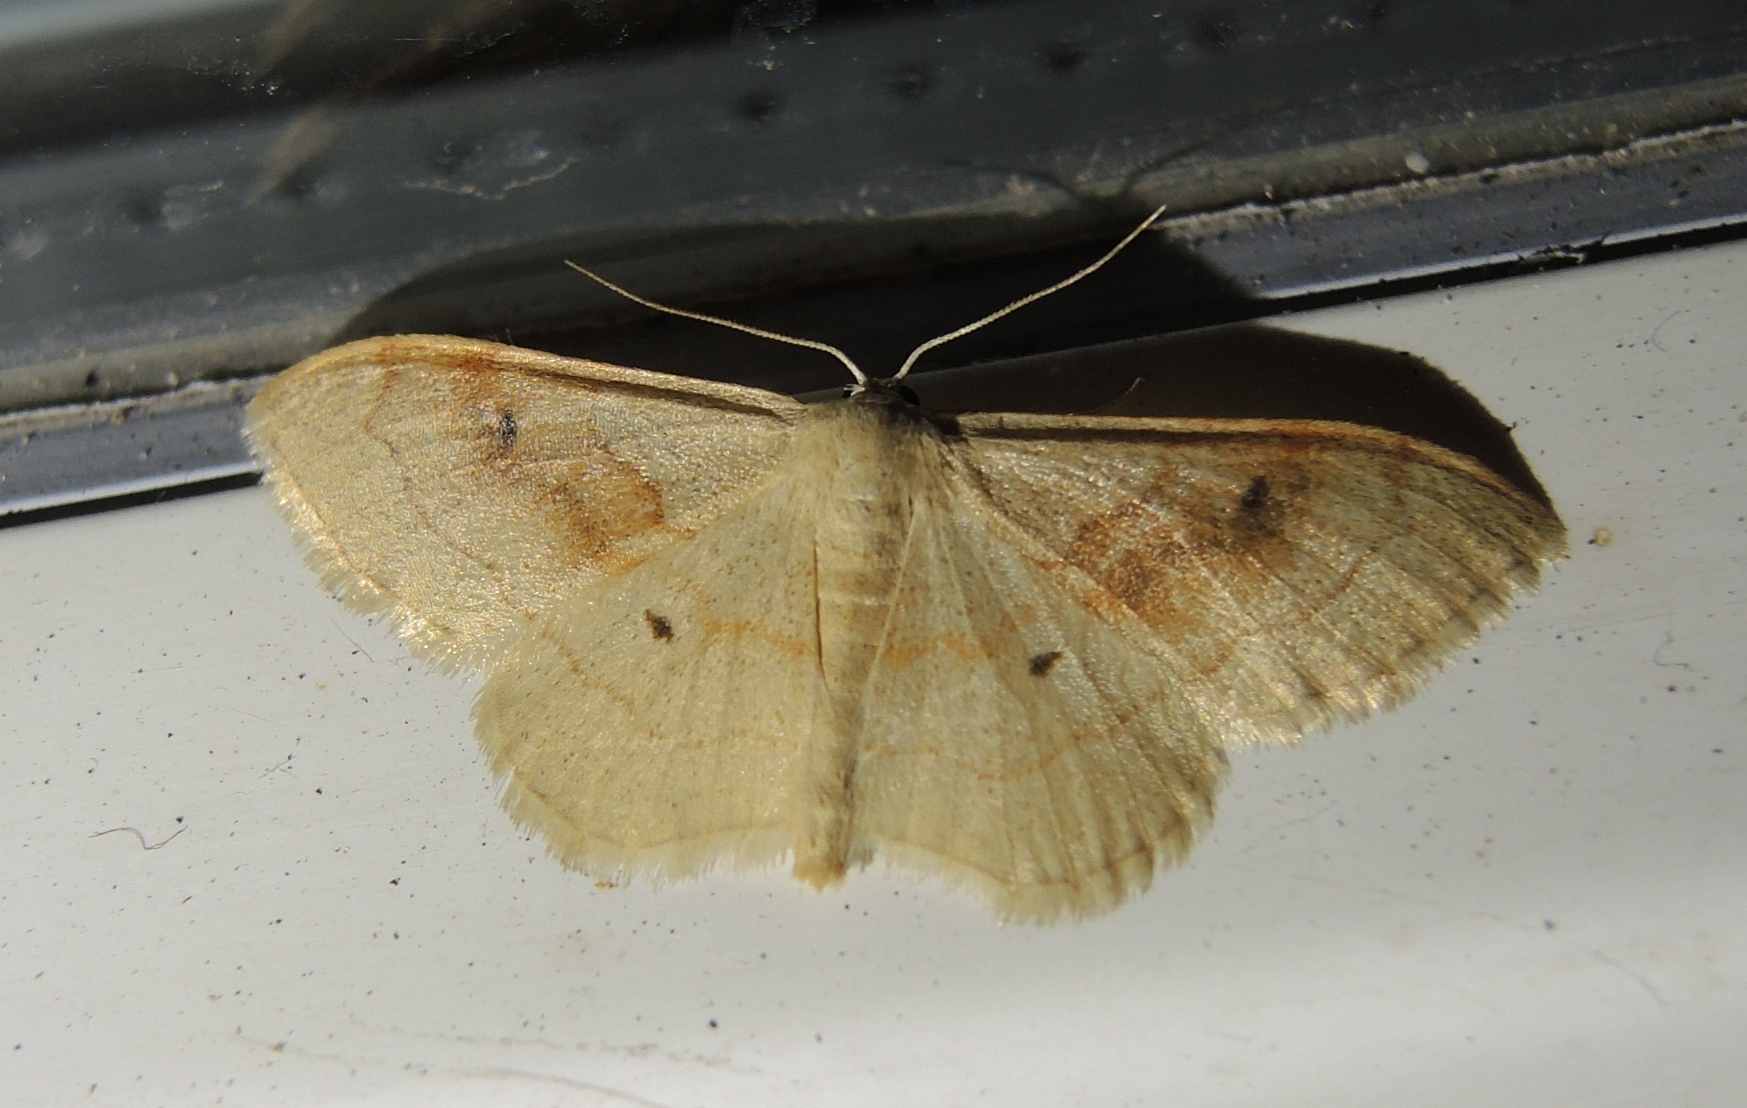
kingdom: Animalia
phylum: Arthropoda
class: Insecta
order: Lepidoptera
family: Geometridae
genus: Idaea
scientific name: Idaea bilinearia
